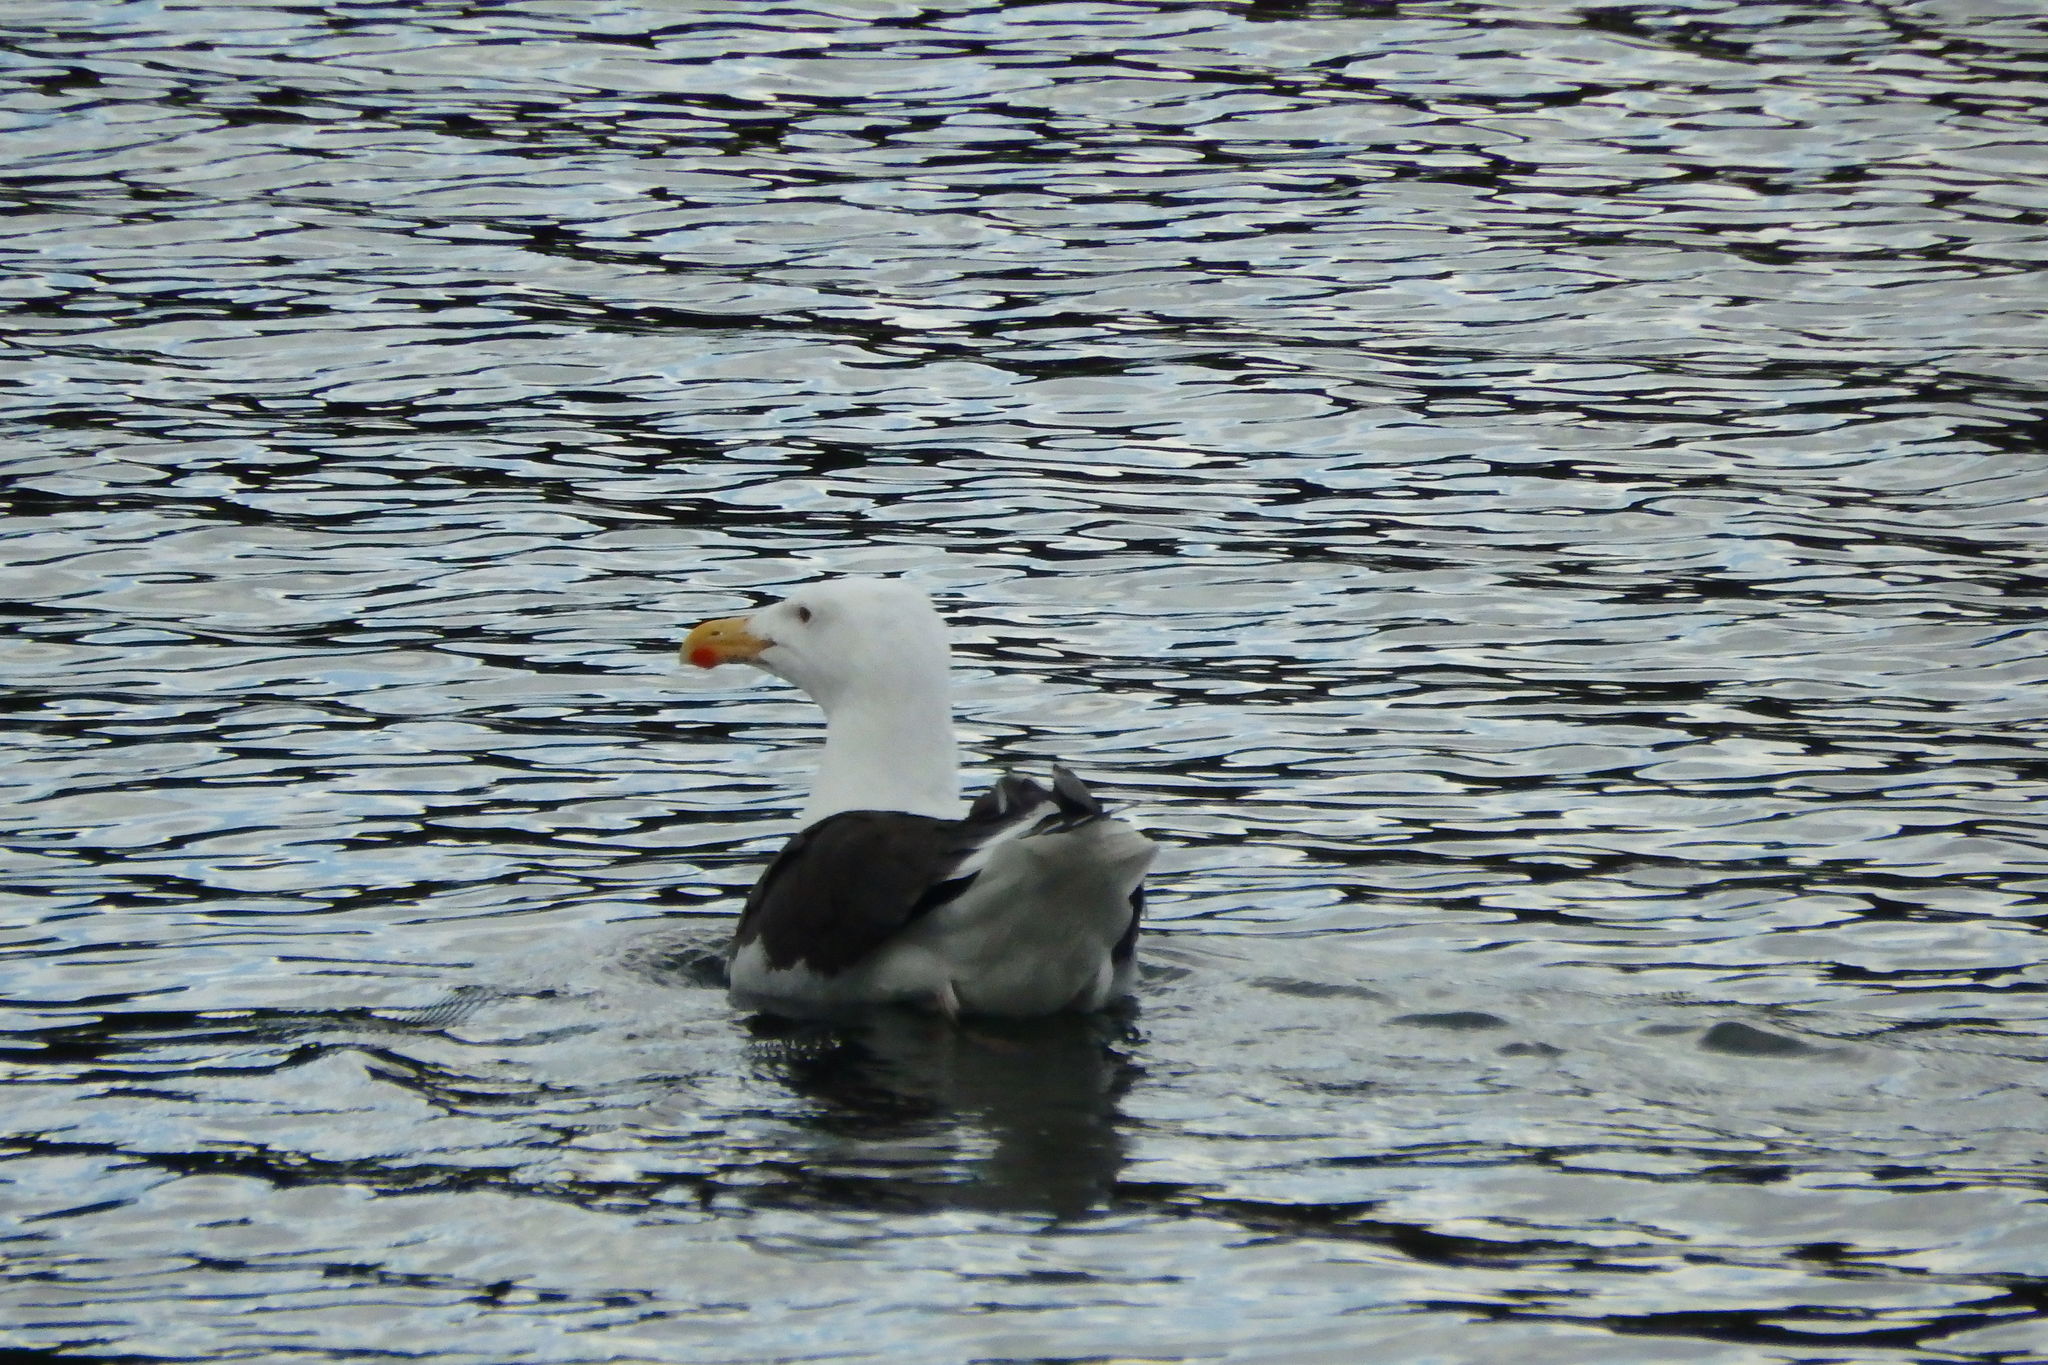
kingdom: Animalia
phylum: Chordata
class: Aves
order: Charadriiformes
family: Laridae
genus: Larus
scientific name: Larus marinus
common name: Great black-backed gull
